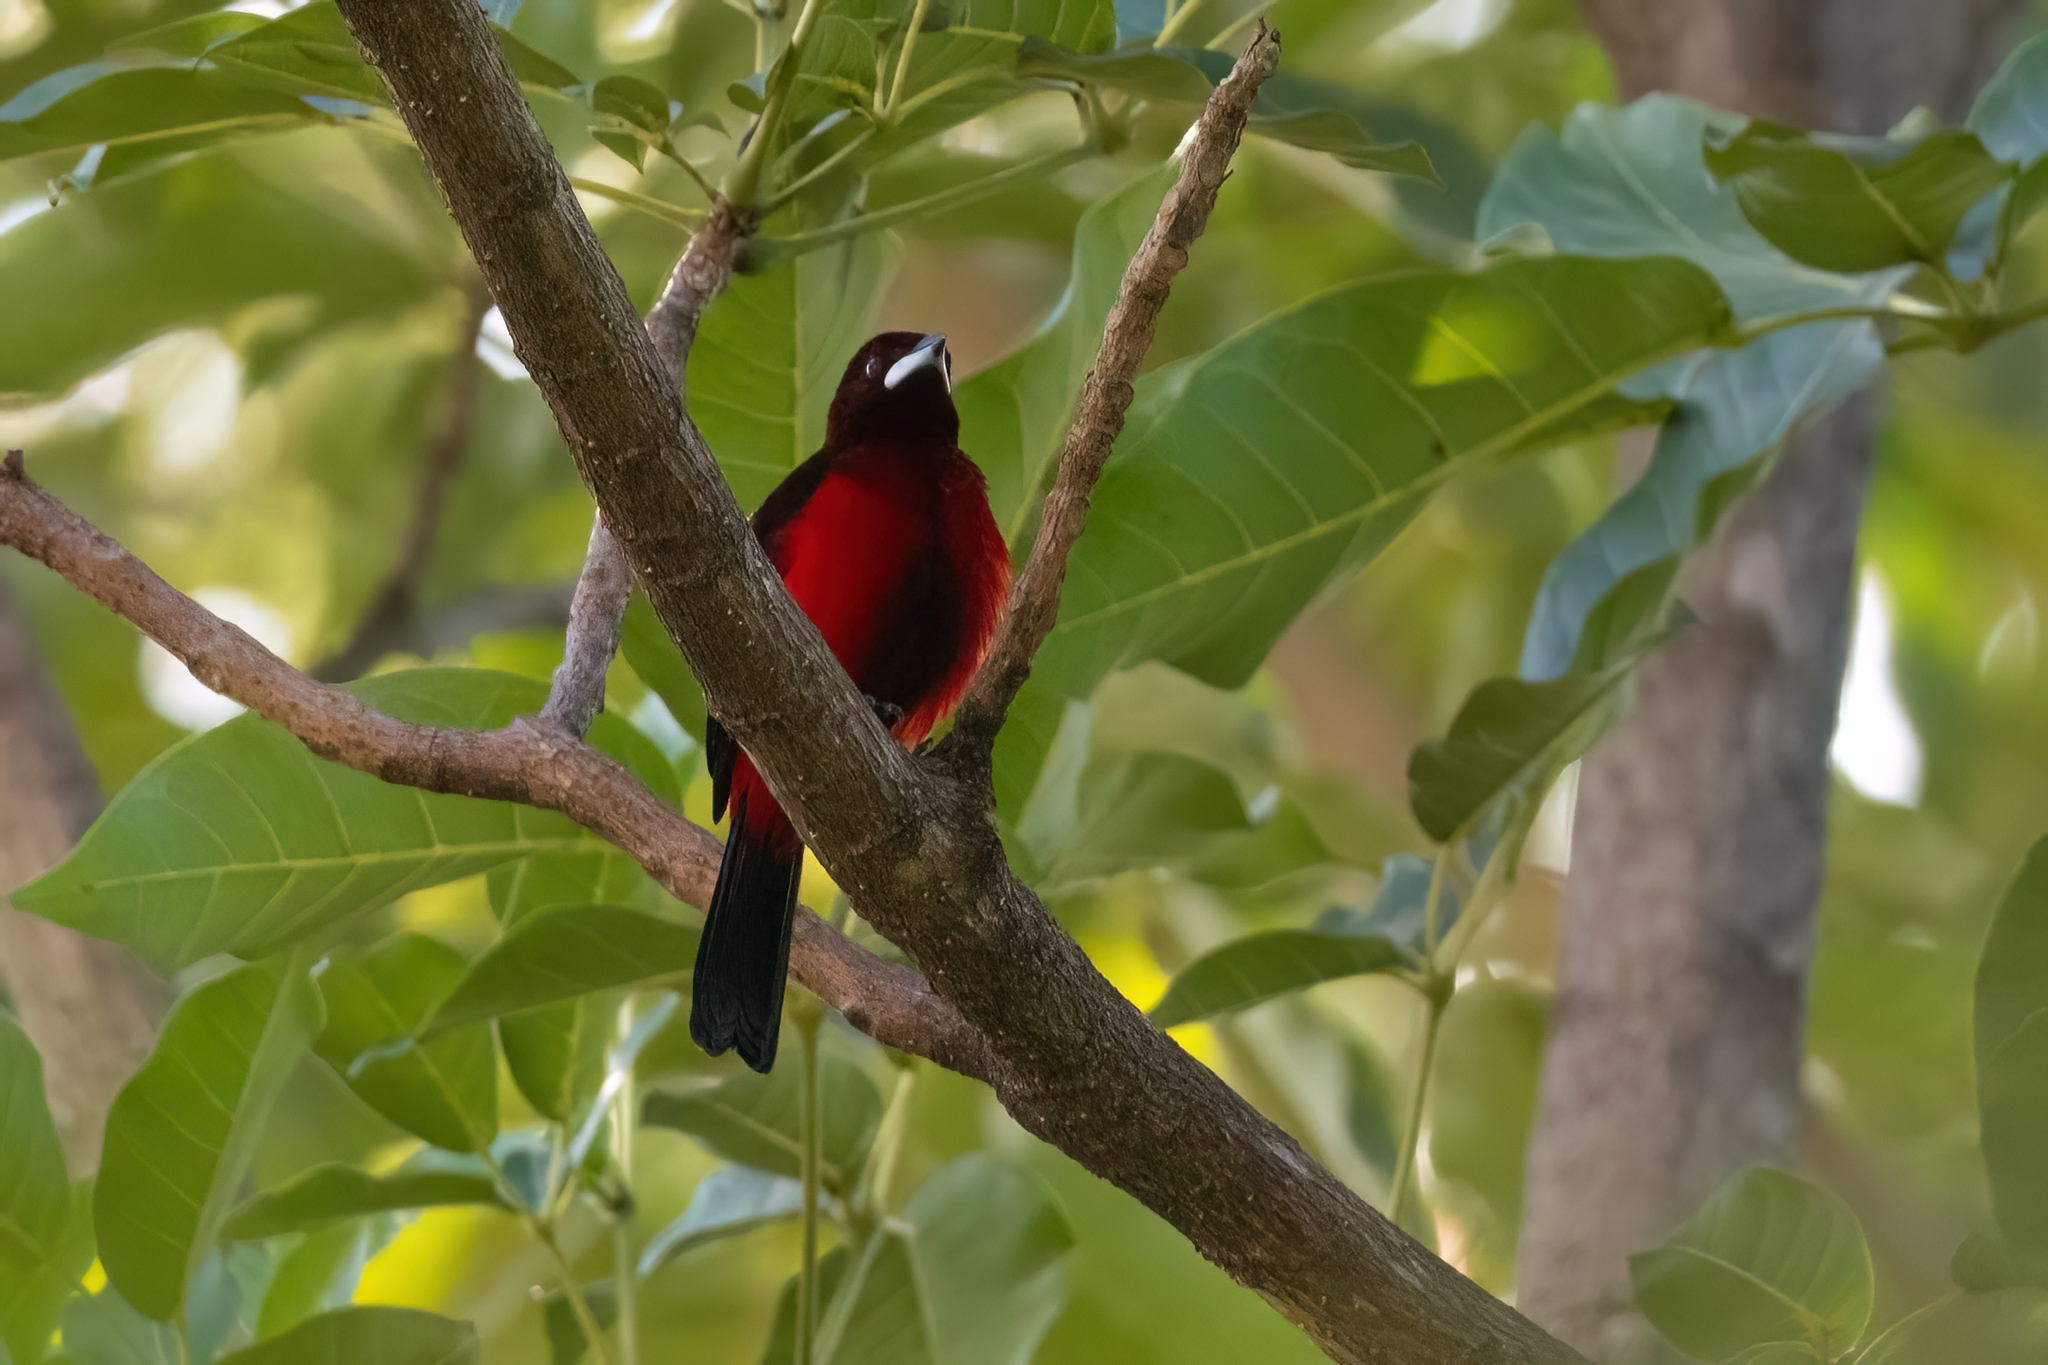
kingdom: Animalia
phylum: Chordata
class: Aves
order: Passeriformes
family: Thraupidae
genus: Ramphocelus
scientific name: Ramphocelus dimidiatus
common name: Crimson-backed tanager
